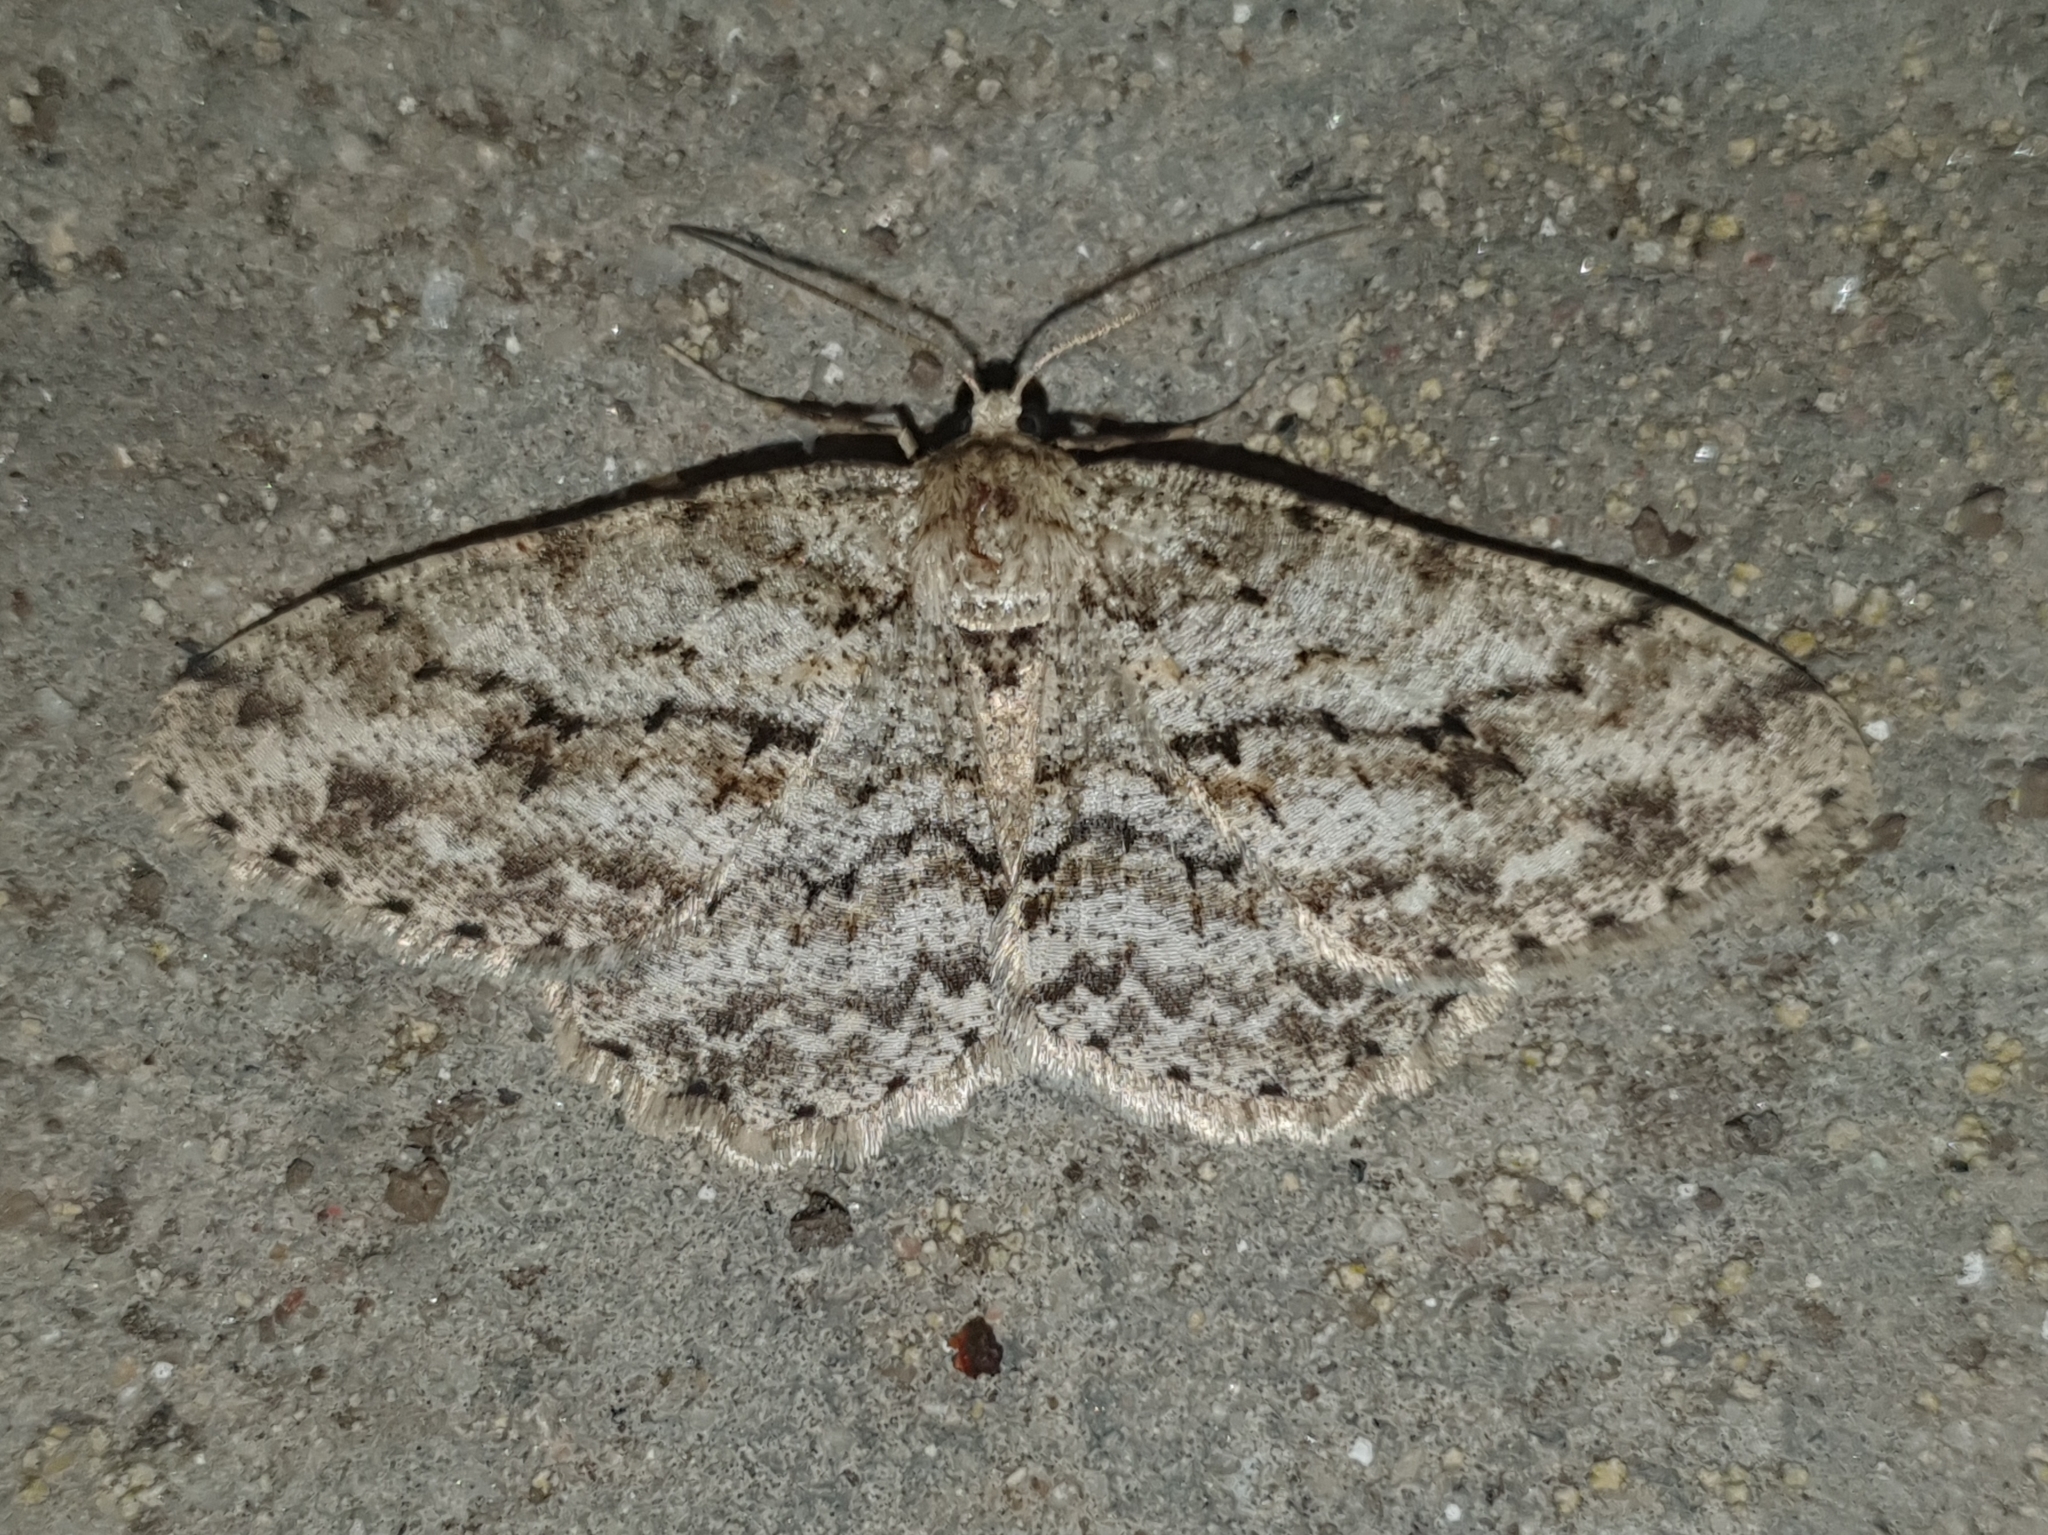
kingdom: Animalia
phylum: Arthropoda
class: Insecta
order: Lepidoptera
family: Geometridae
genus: Ectropis
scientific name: Ectropis crepuscularia
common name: Engrailed
